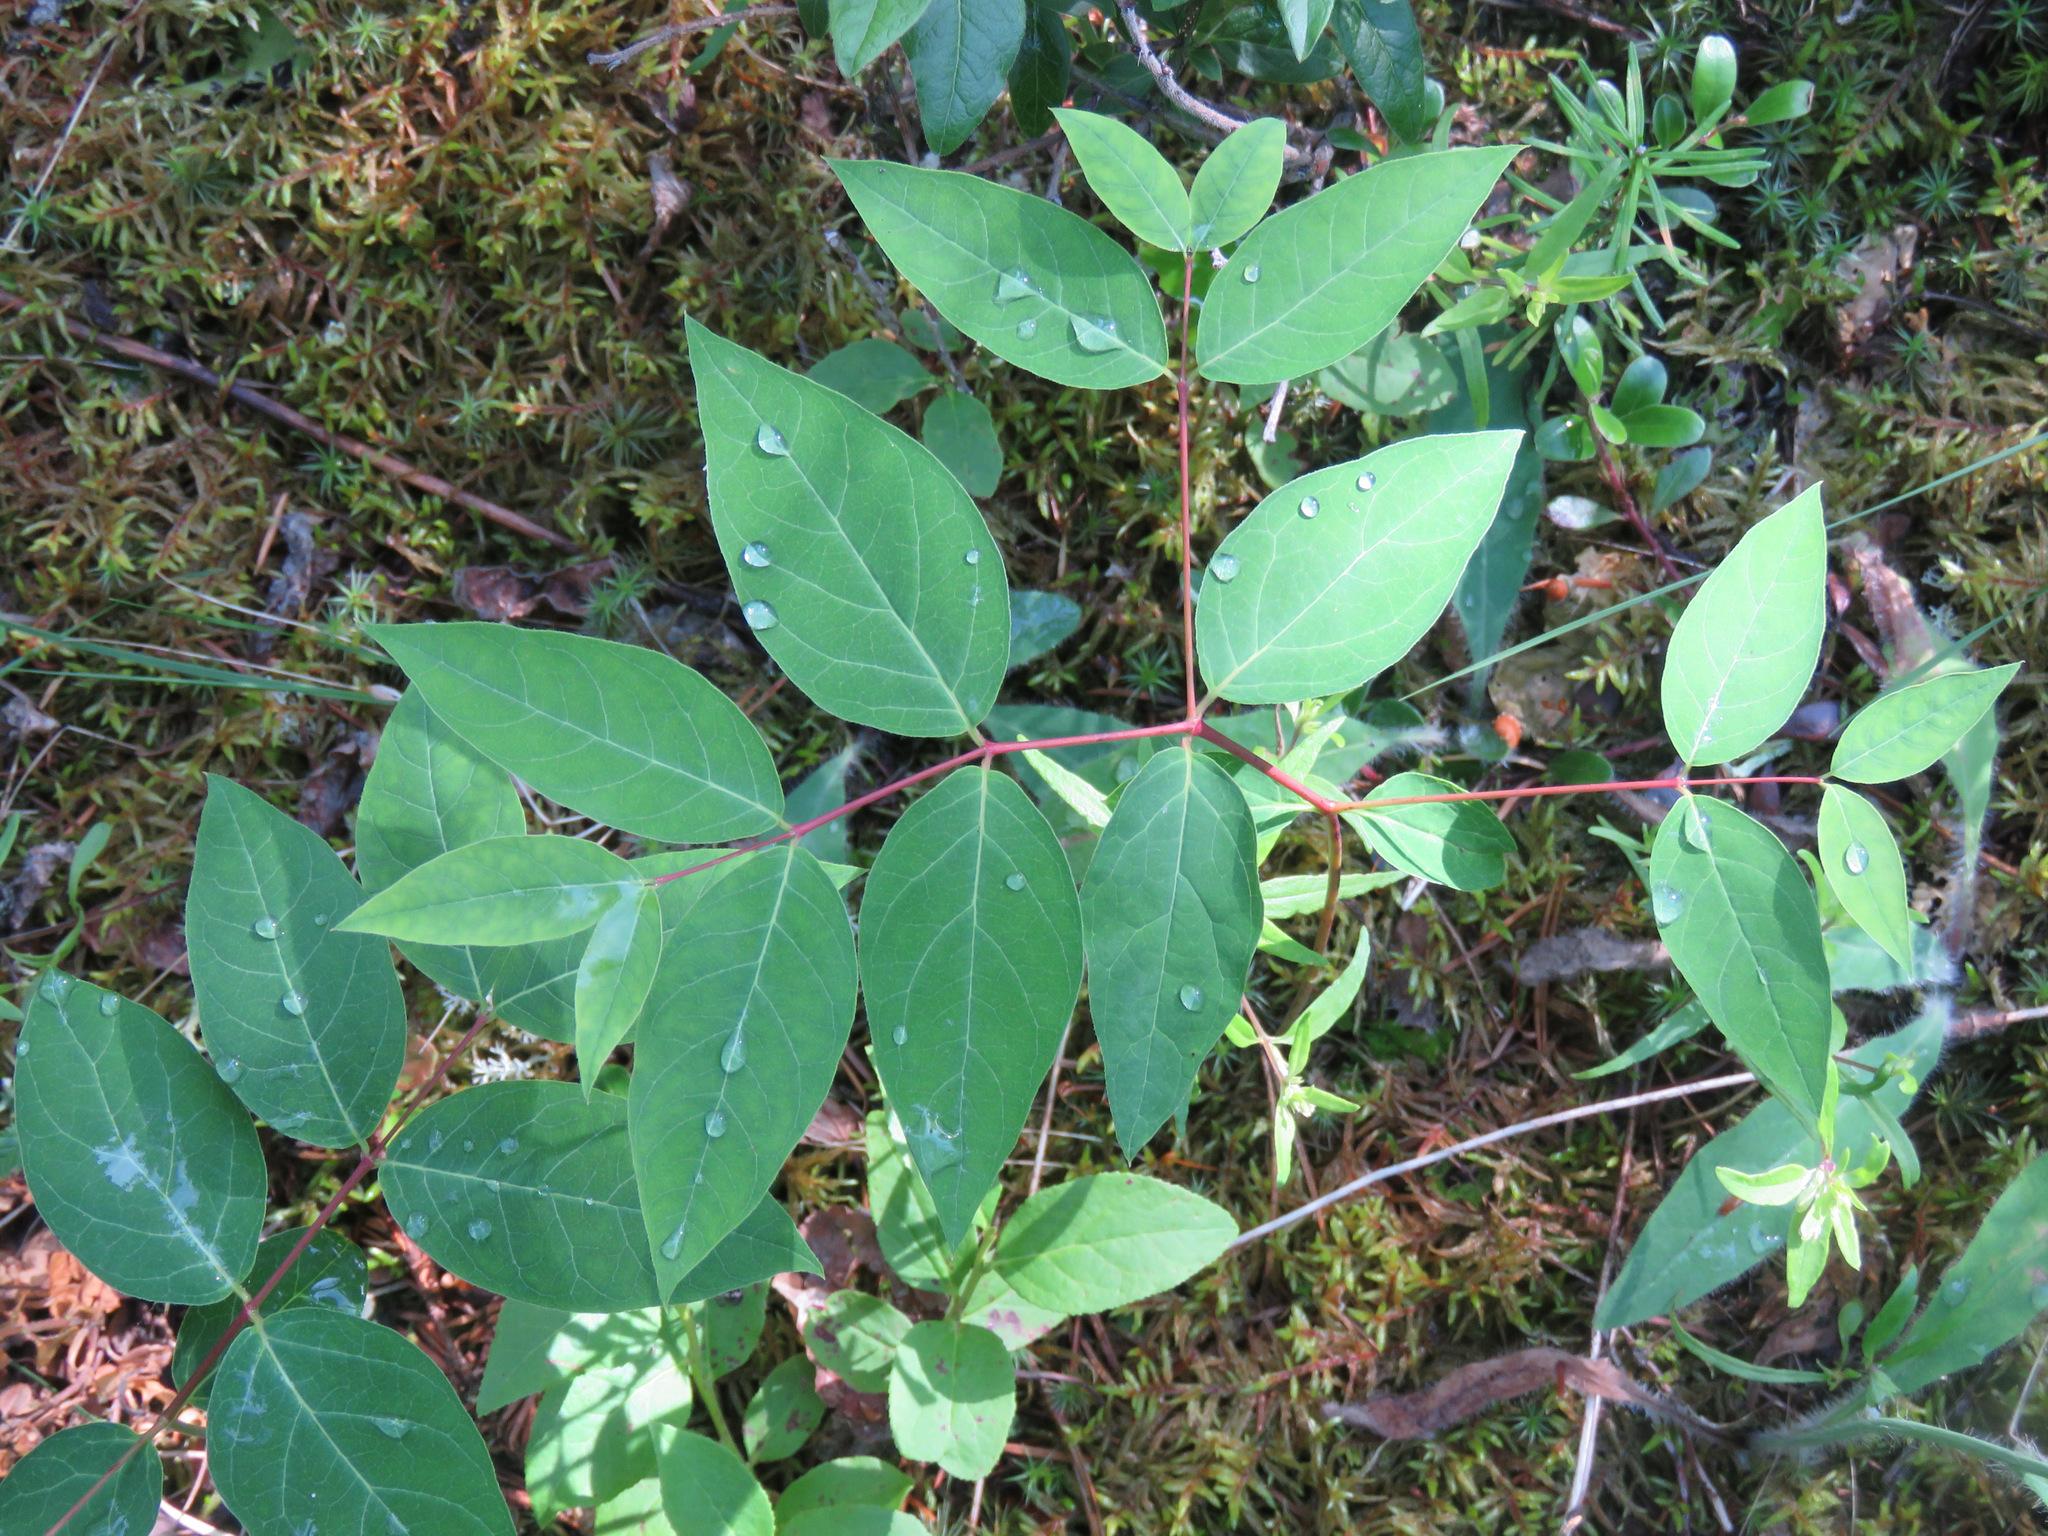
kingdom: Plantae
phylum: Tracheophyta
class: Magnoliopsida
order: Gentianales
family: Apocynaceae
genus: Apocynum
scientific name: Apocynum androsaemifolium
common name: Spreading dogbane
